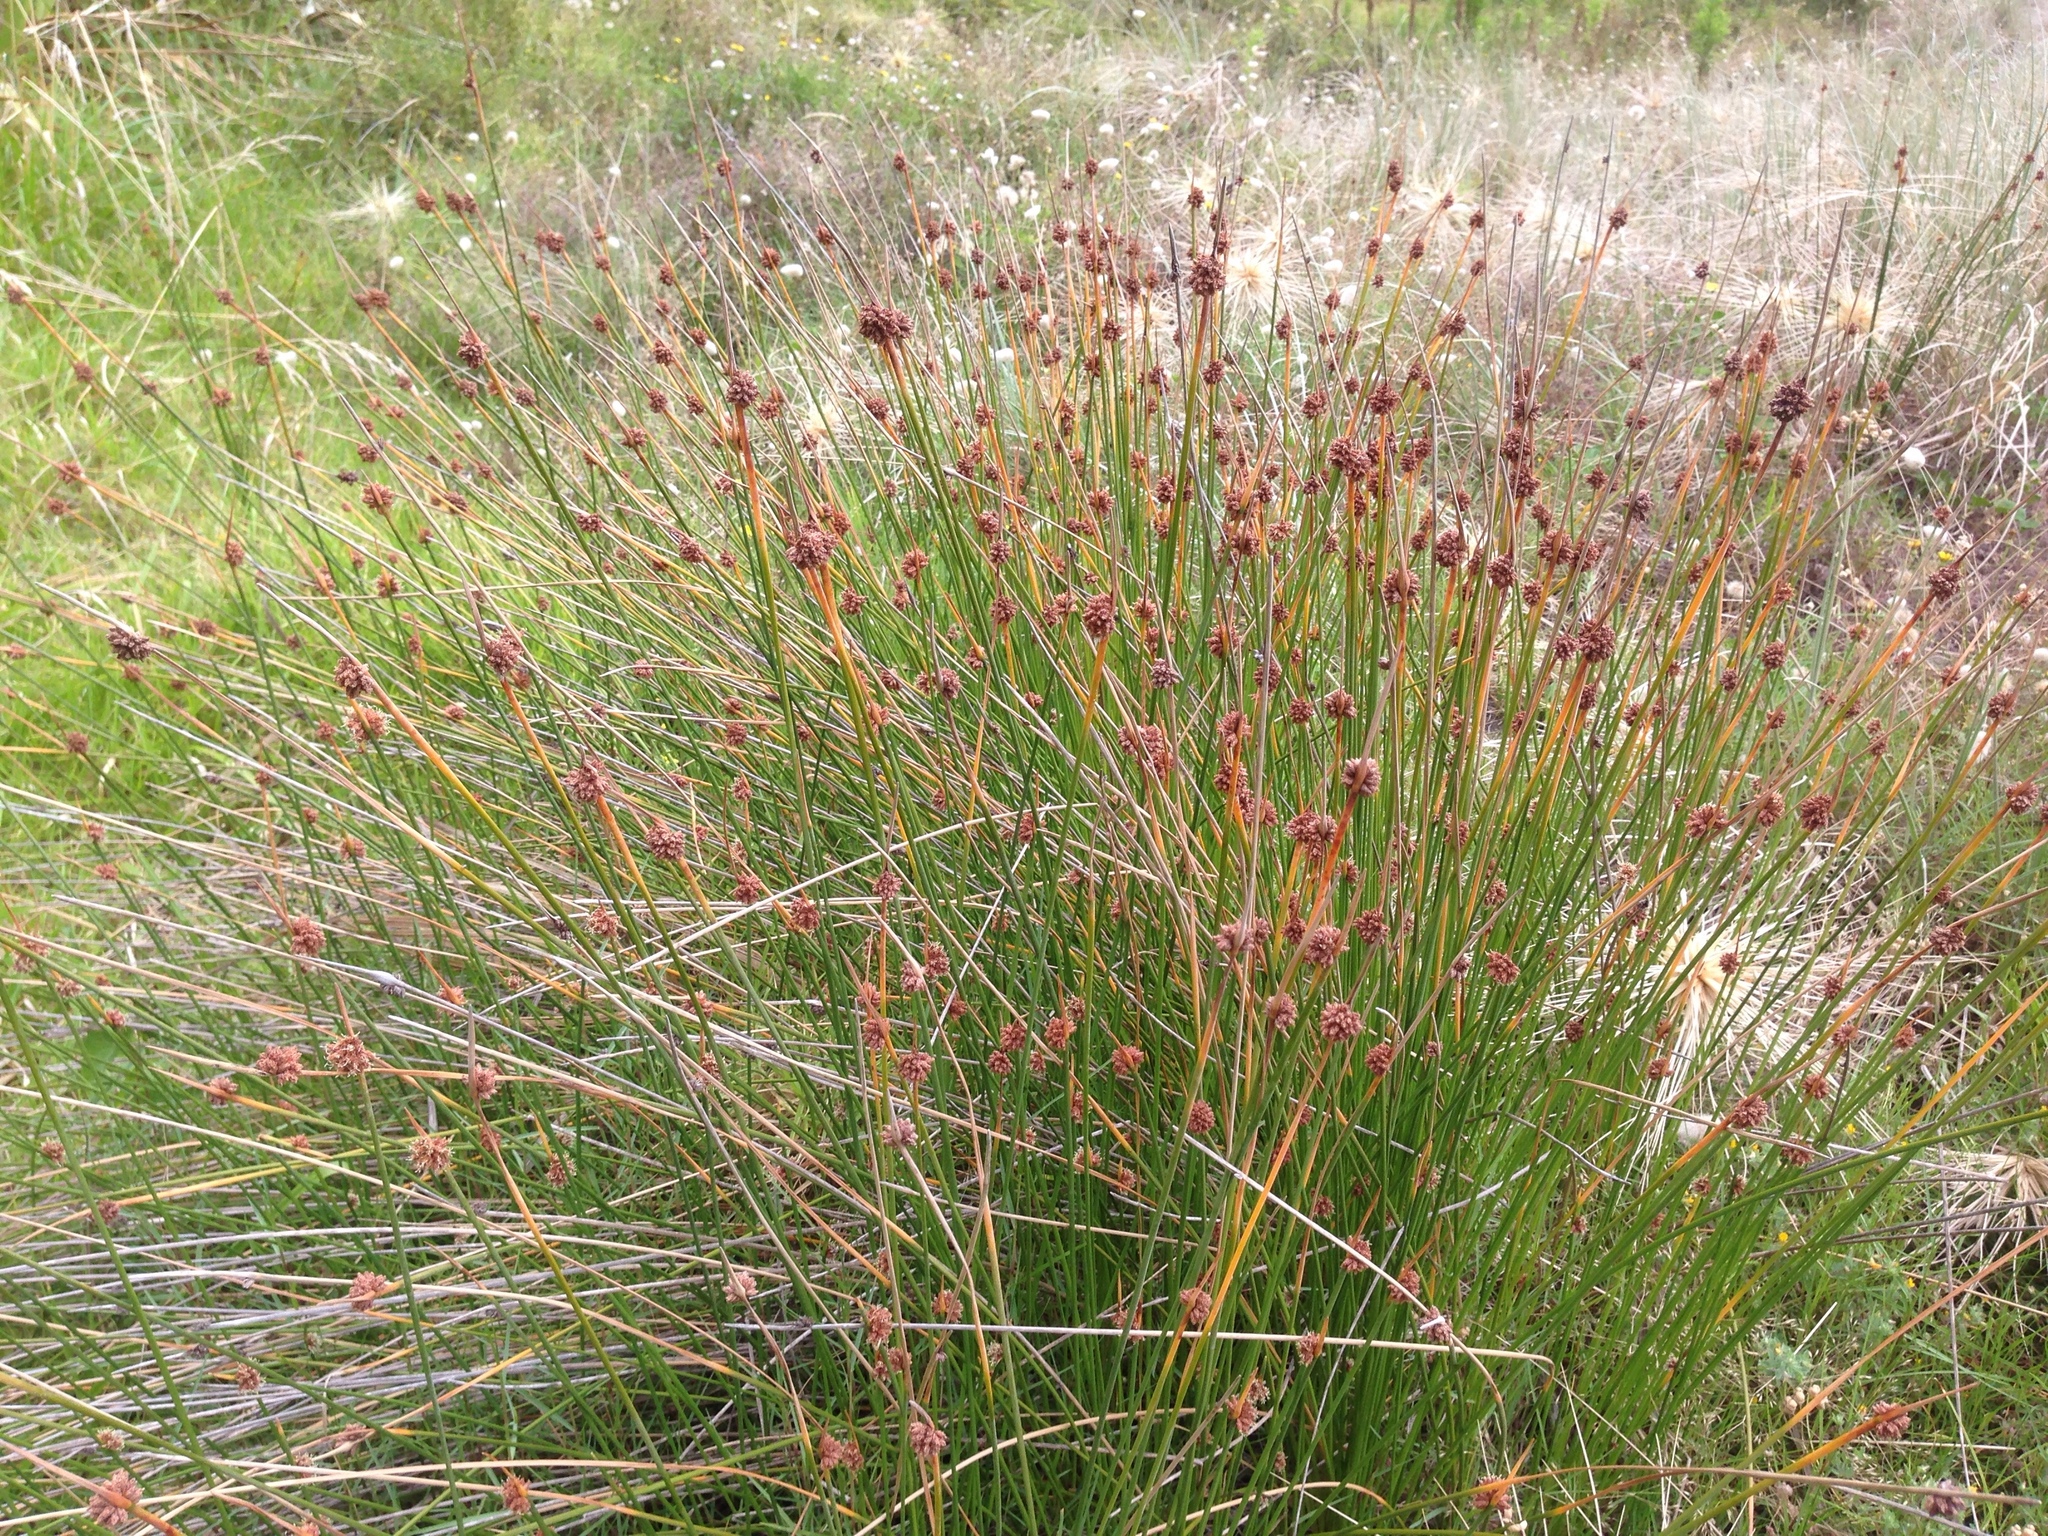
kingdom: Plantae
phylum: Tracheophyta
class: Liliopsida
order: Poales
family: Cyperaceae
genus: Ficinia
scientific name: Ficinia nodosa
